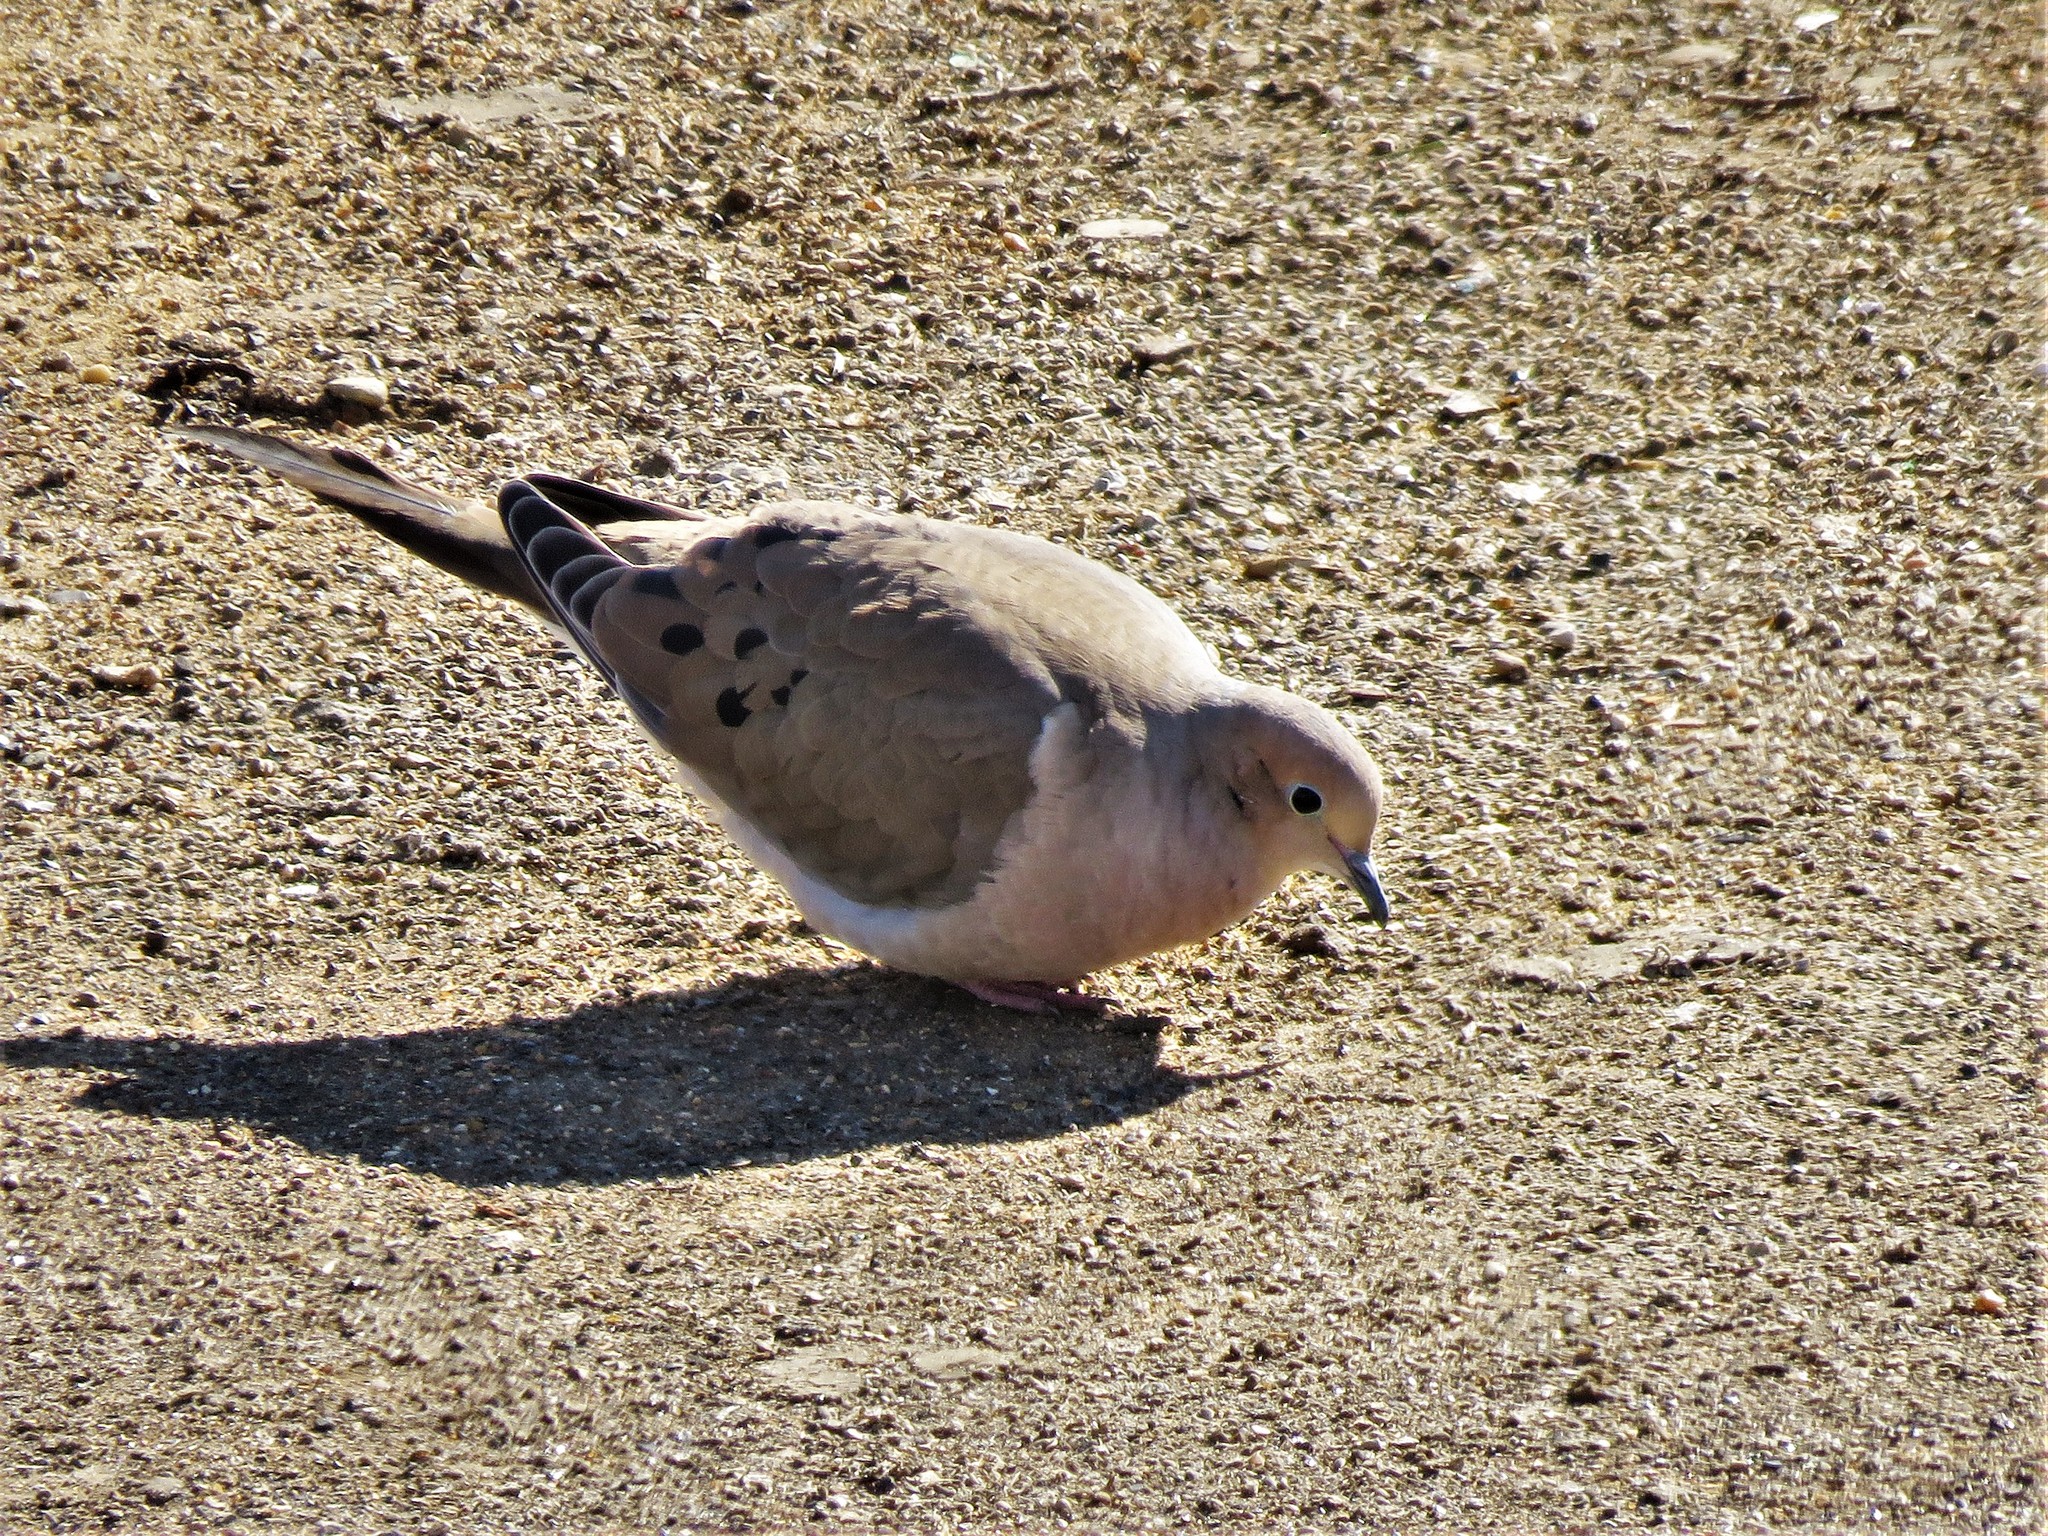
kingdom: Animalia
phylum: Chordata
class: Aves
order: Columbiformes
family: Columbidae
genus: Zenaida
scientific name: Zenaida macroura
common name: Mourning dove
